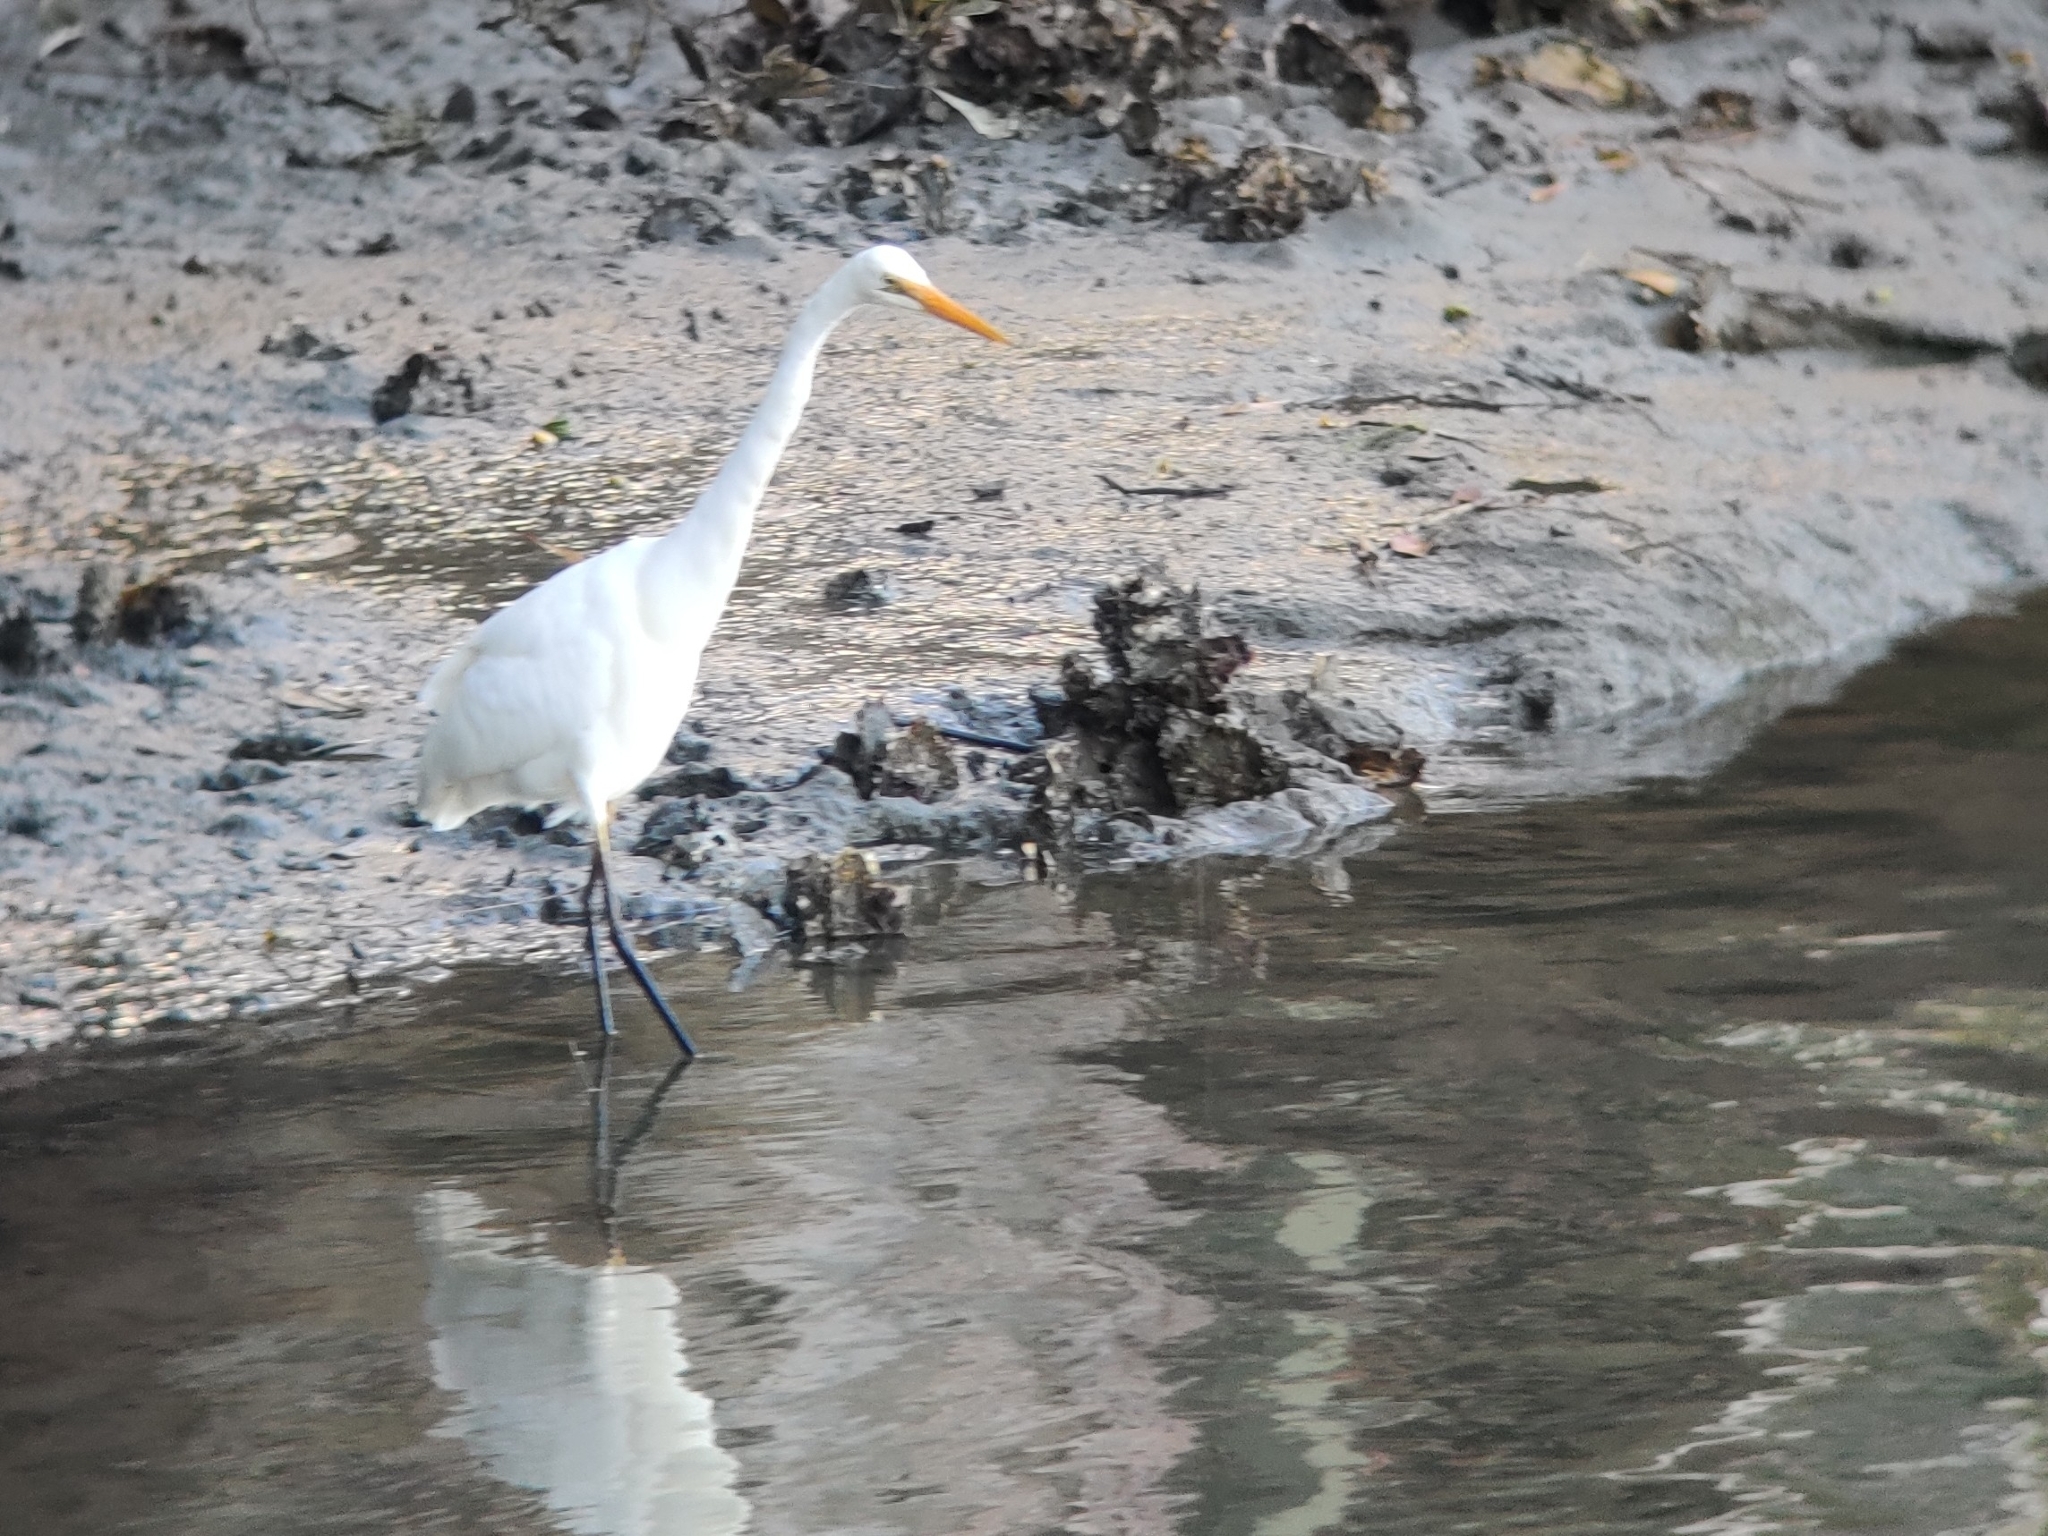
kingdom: Animalia
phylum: Chordata
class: Aves
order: Pelecaniformes
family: Ardeidae
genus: Ardea
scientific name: Ardea alba
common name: Great egret
